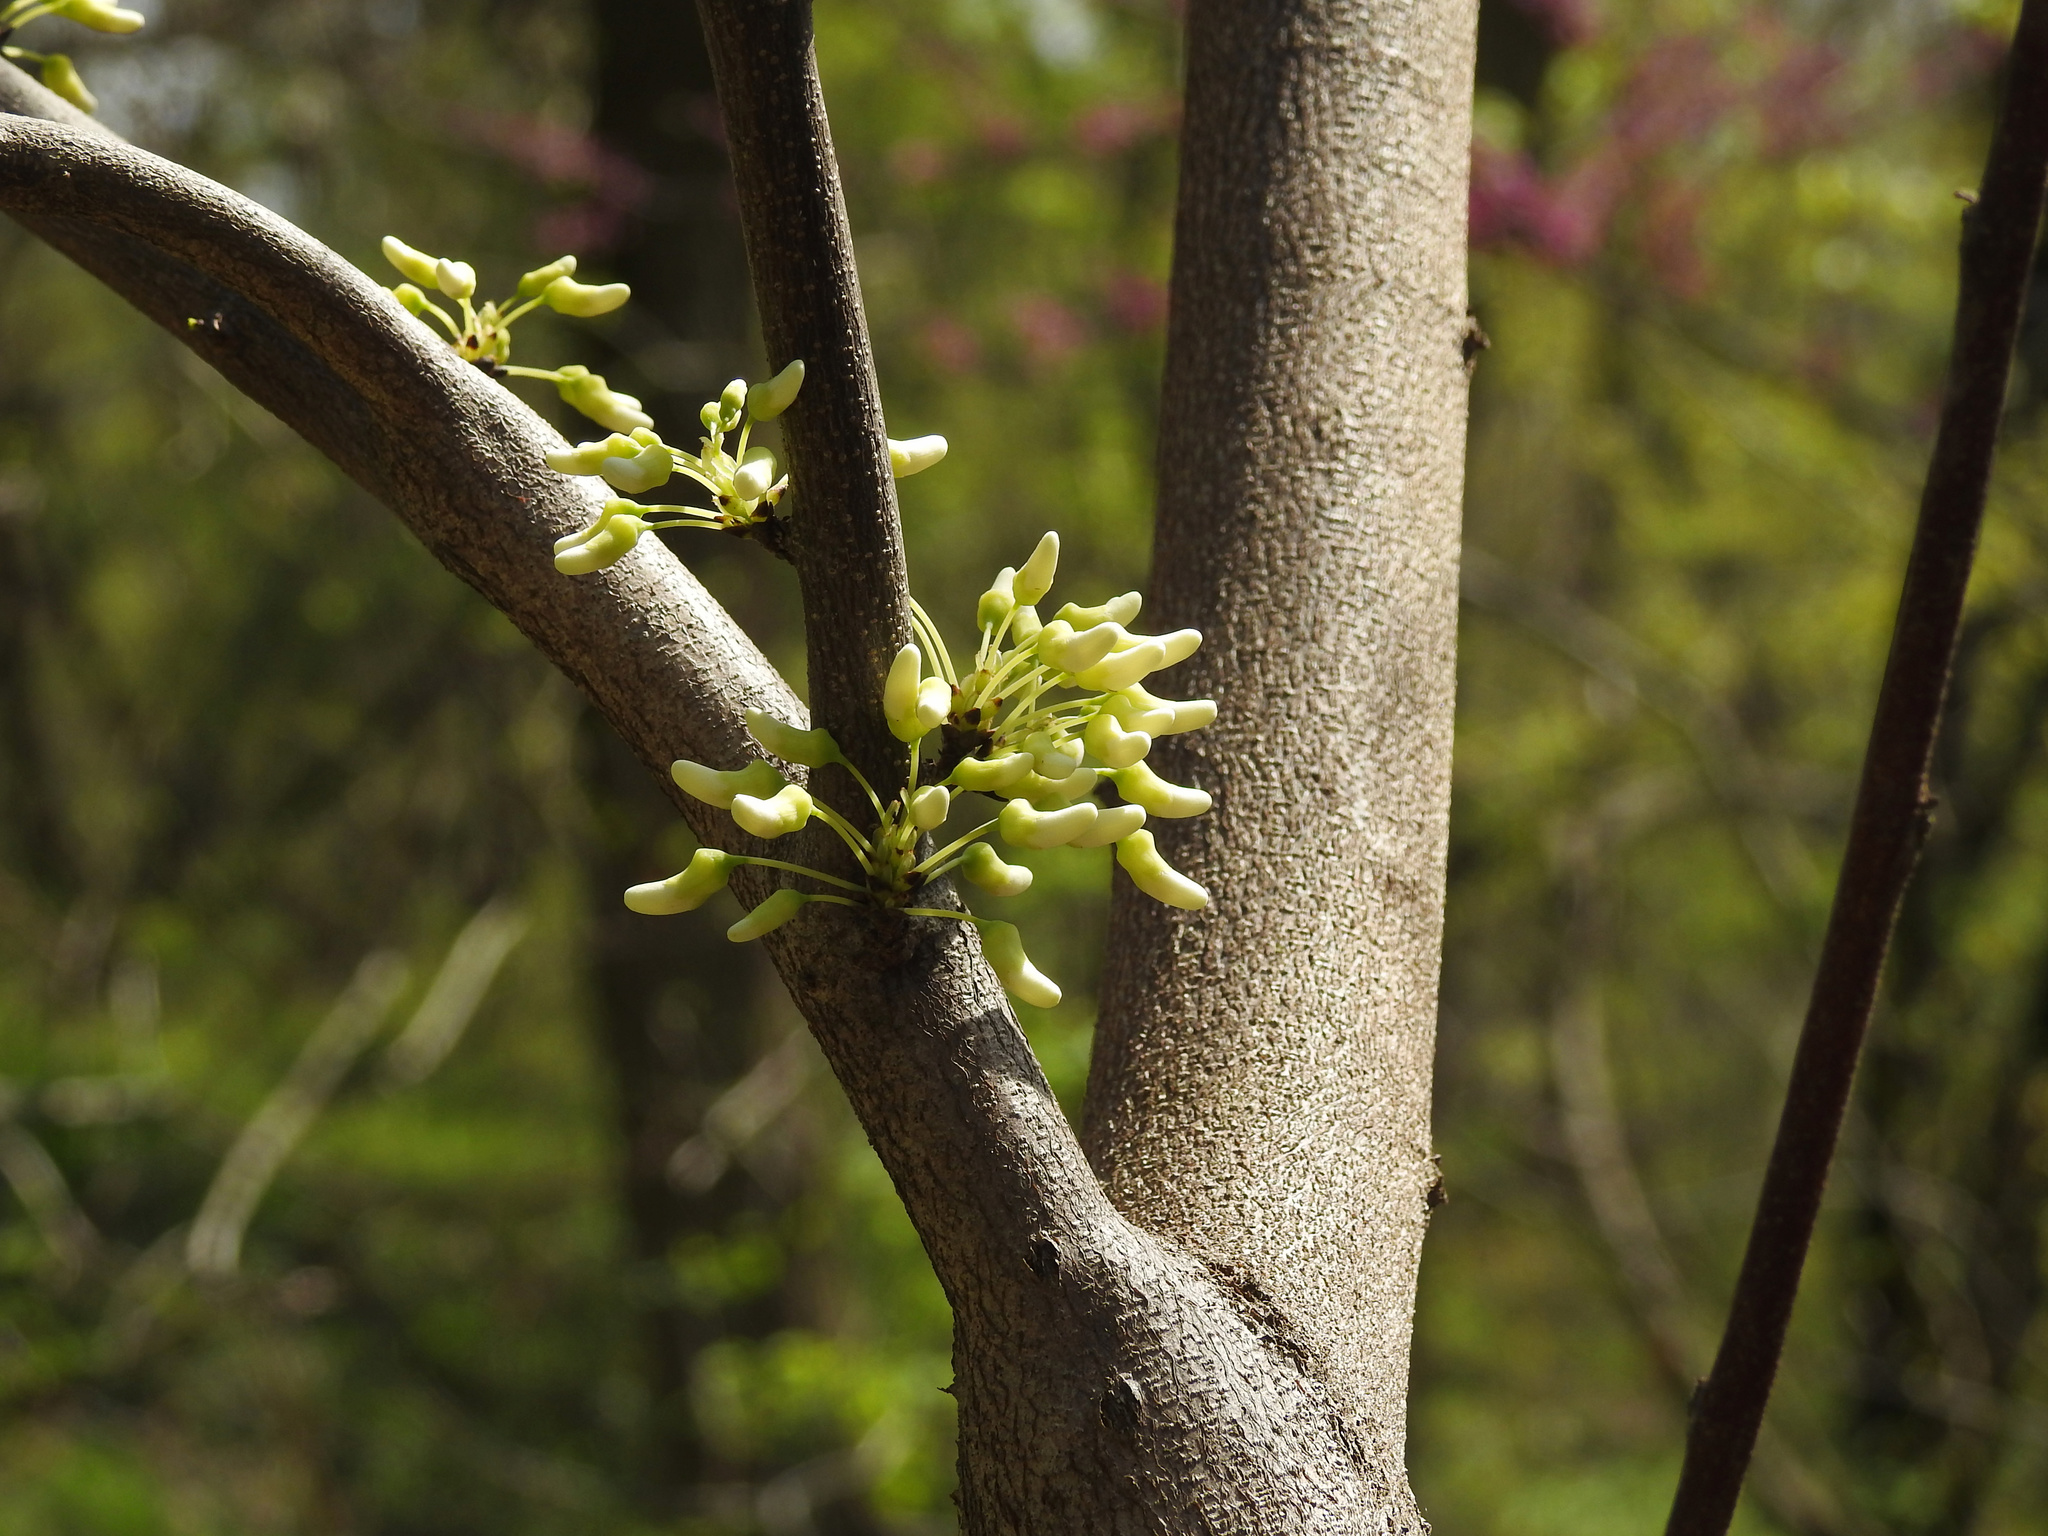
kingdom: Plantae
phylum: Tracheophyta
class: Magnoliopsida
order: Fabales
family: Fabaceae
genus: Cercis
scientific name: Cercis canadensis
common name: Eastern redbud
